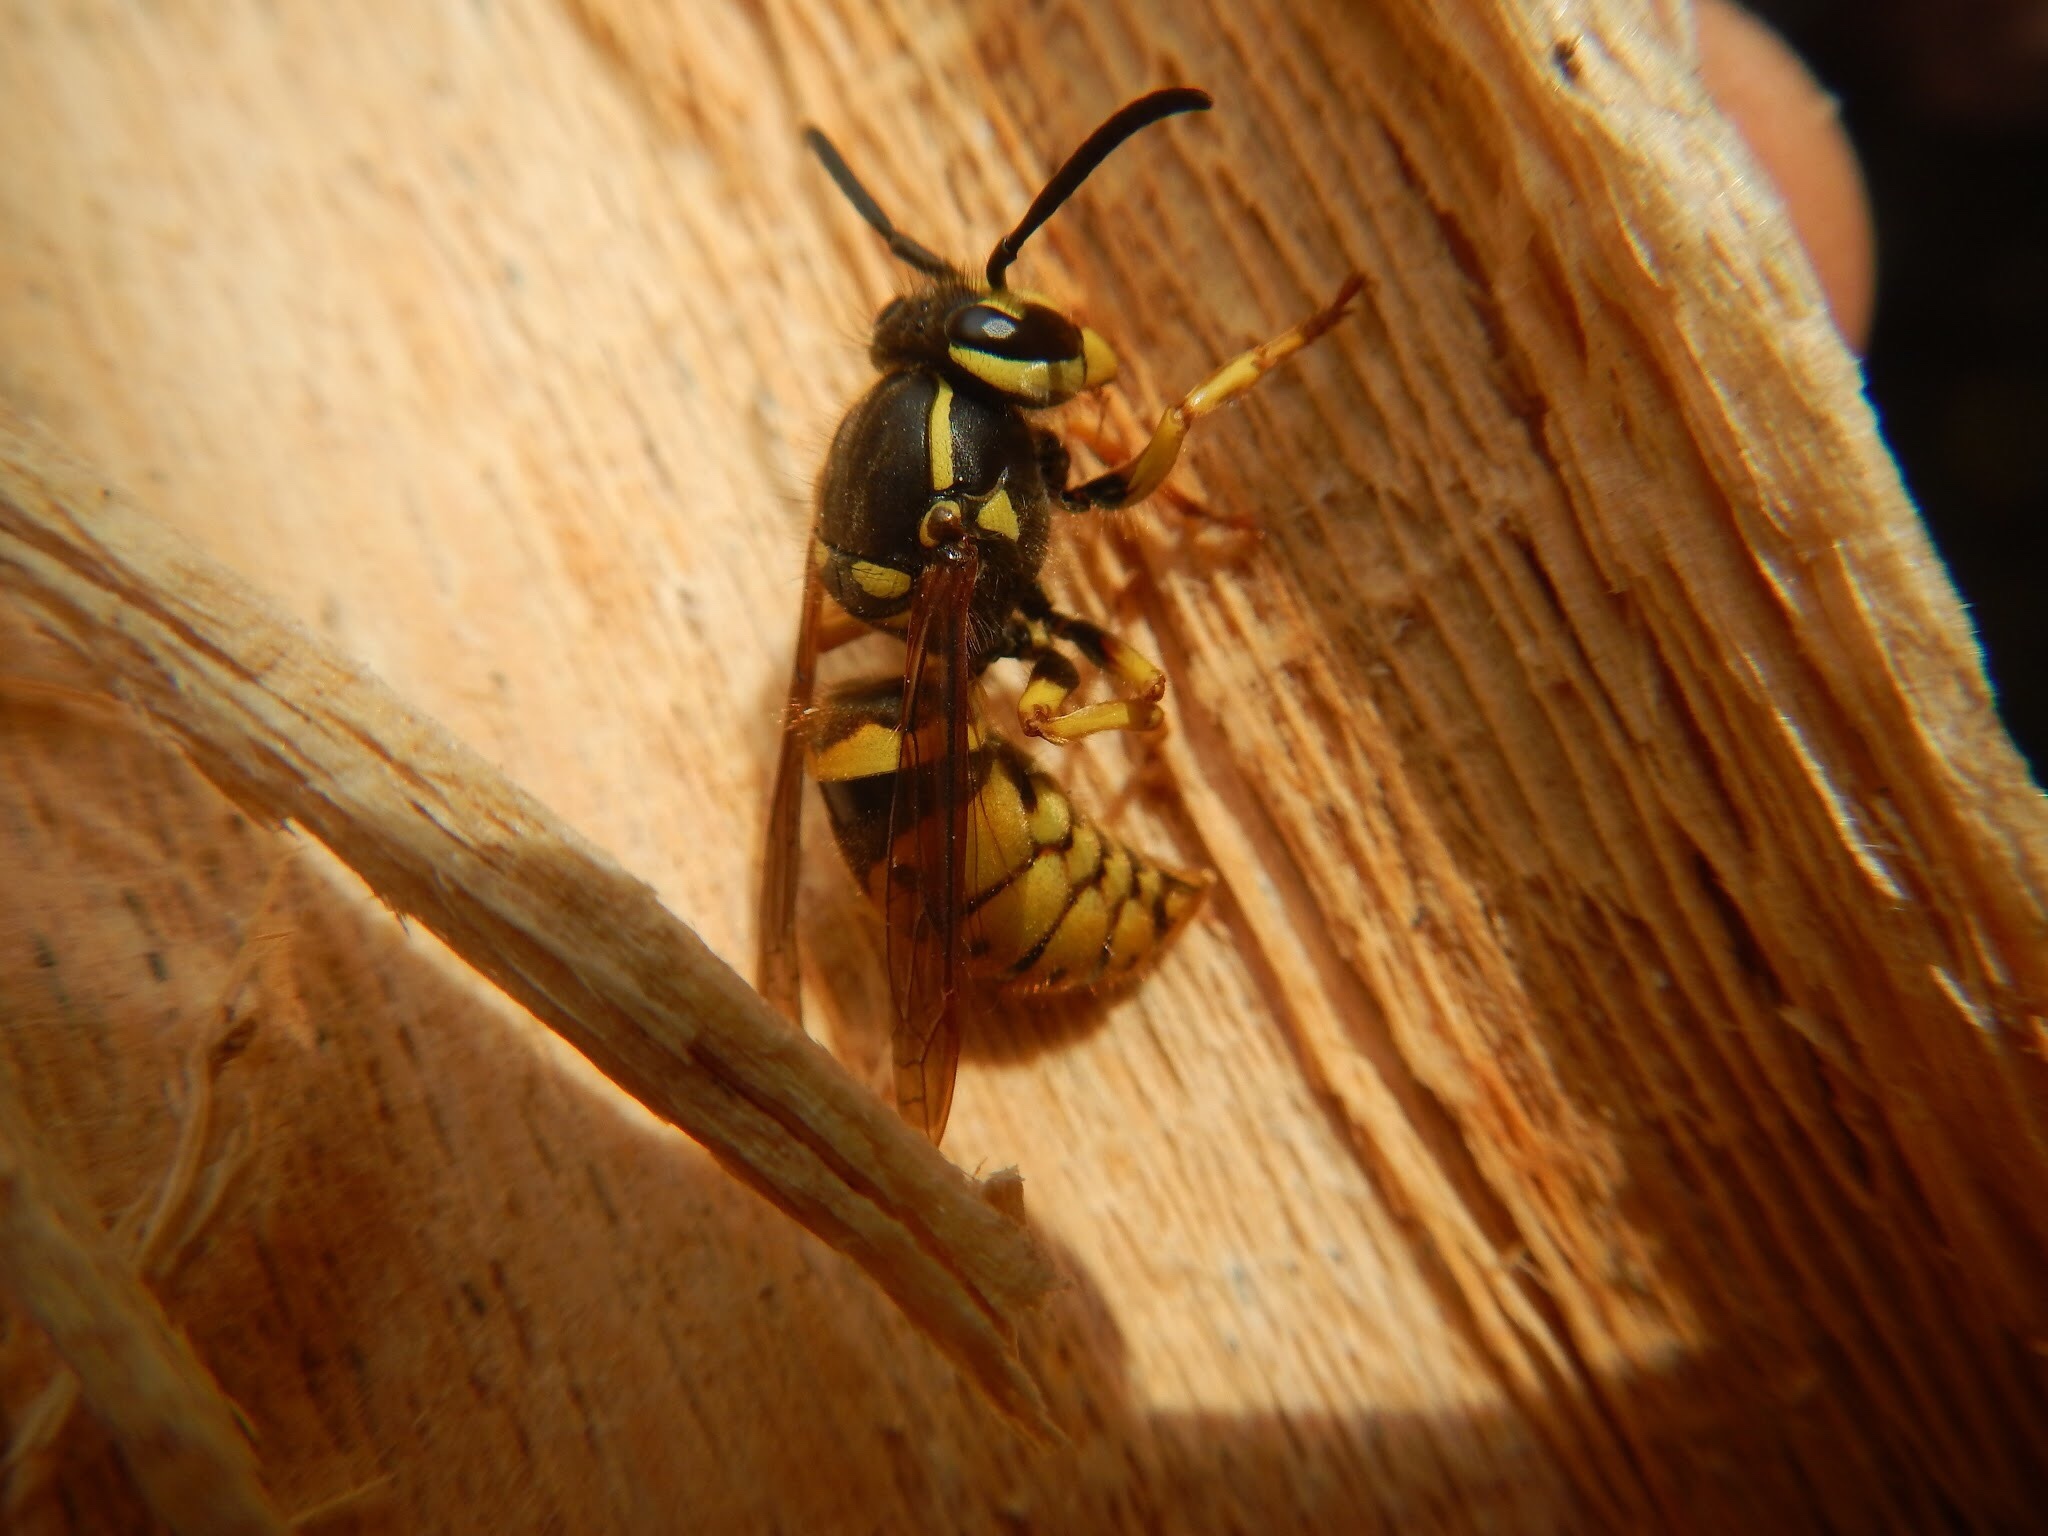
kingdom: Animalia
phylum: Arthropoda
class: Insecta
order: Hymenoptera
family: Vespidae
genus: Vespula
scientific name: Vespula flavopilosa
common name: Downy yellowjacket
